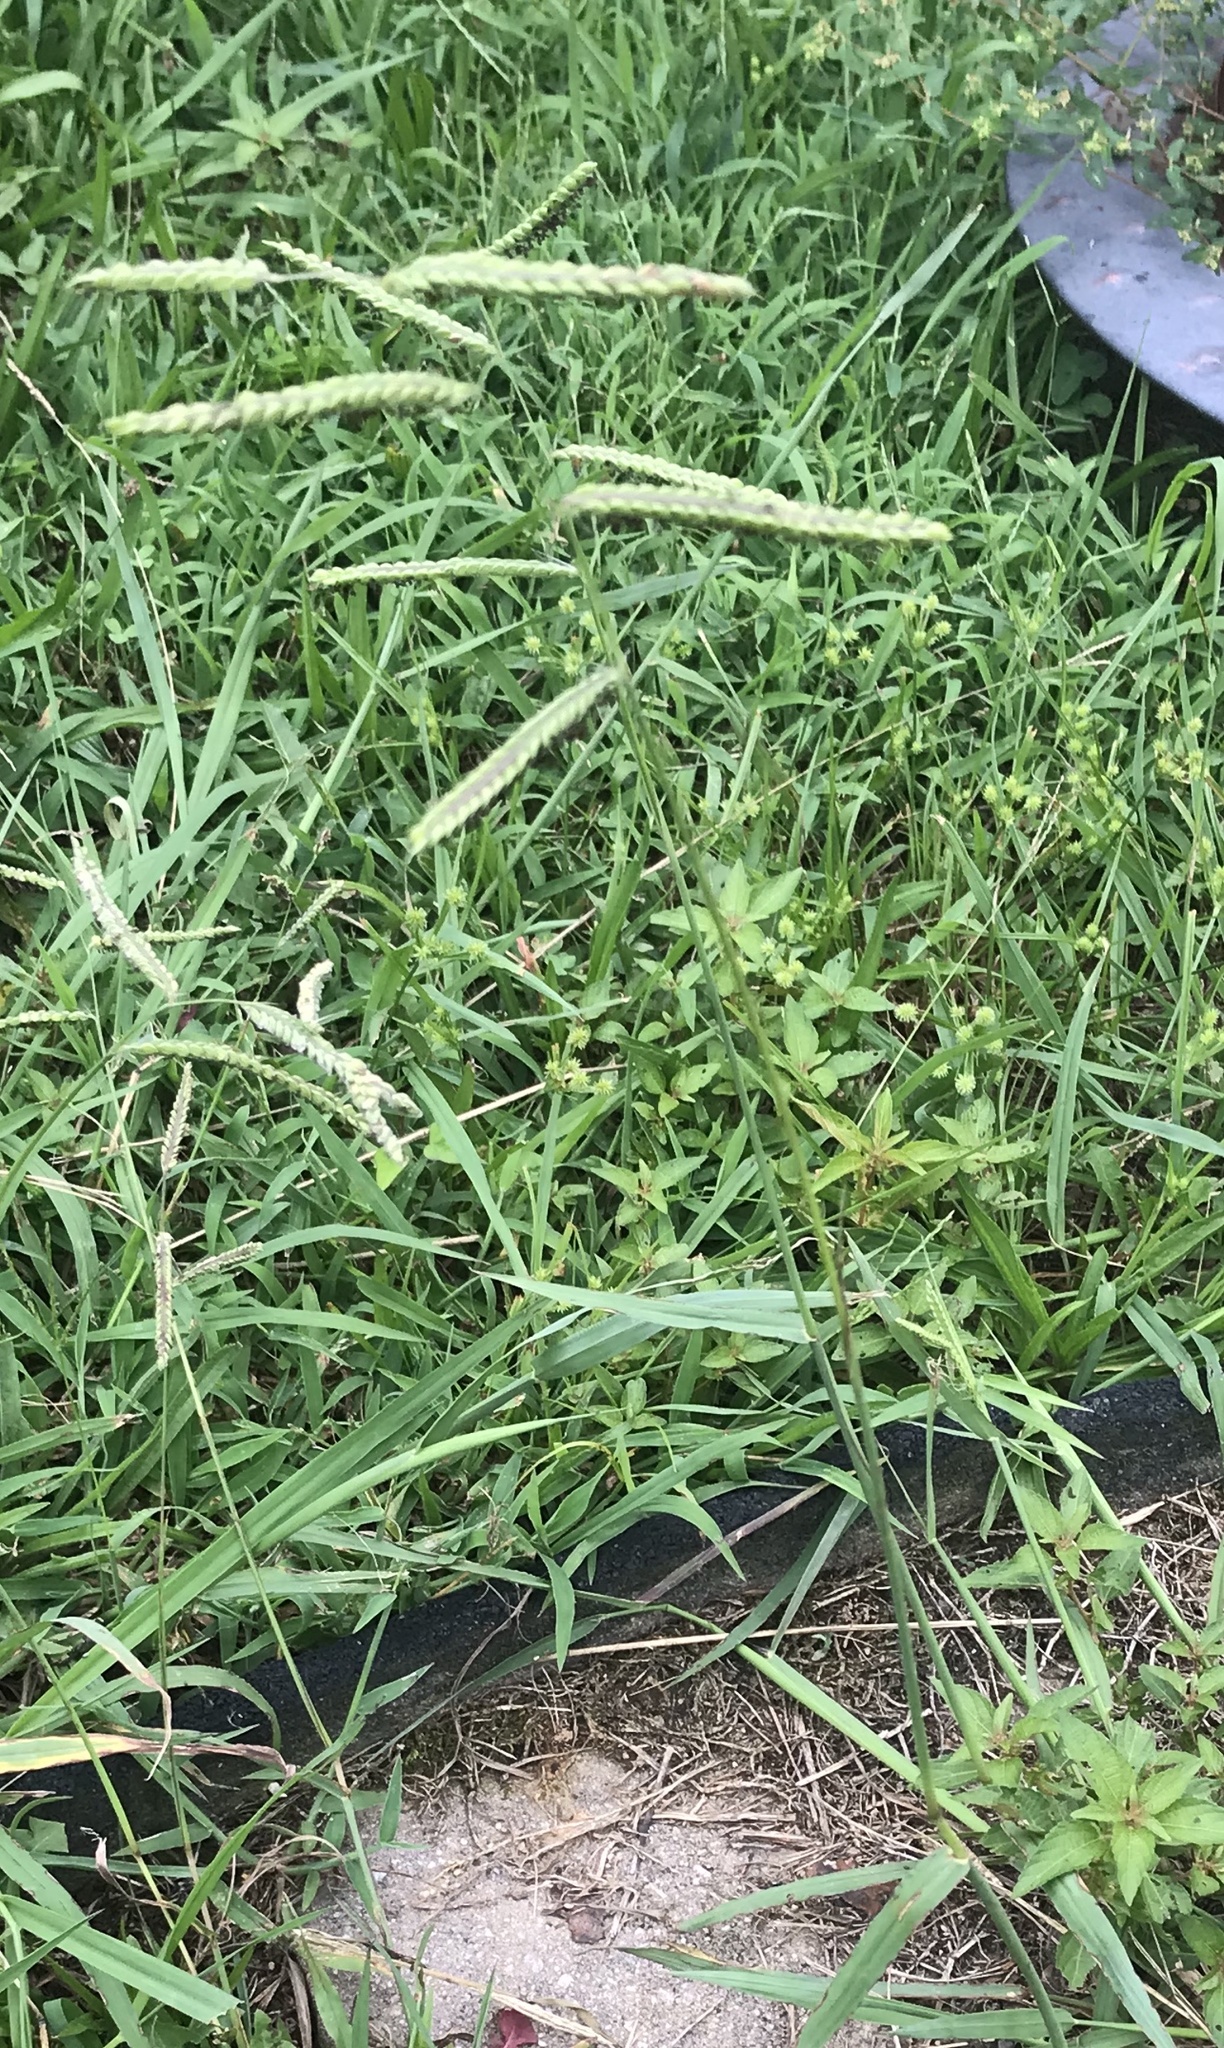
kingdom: Plantae
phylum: Tracheophyta
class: Liliopsida
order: Poales
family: Poaceae
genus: Paspalum
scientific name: Paspalum dilatatum
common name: Dallisgrass
